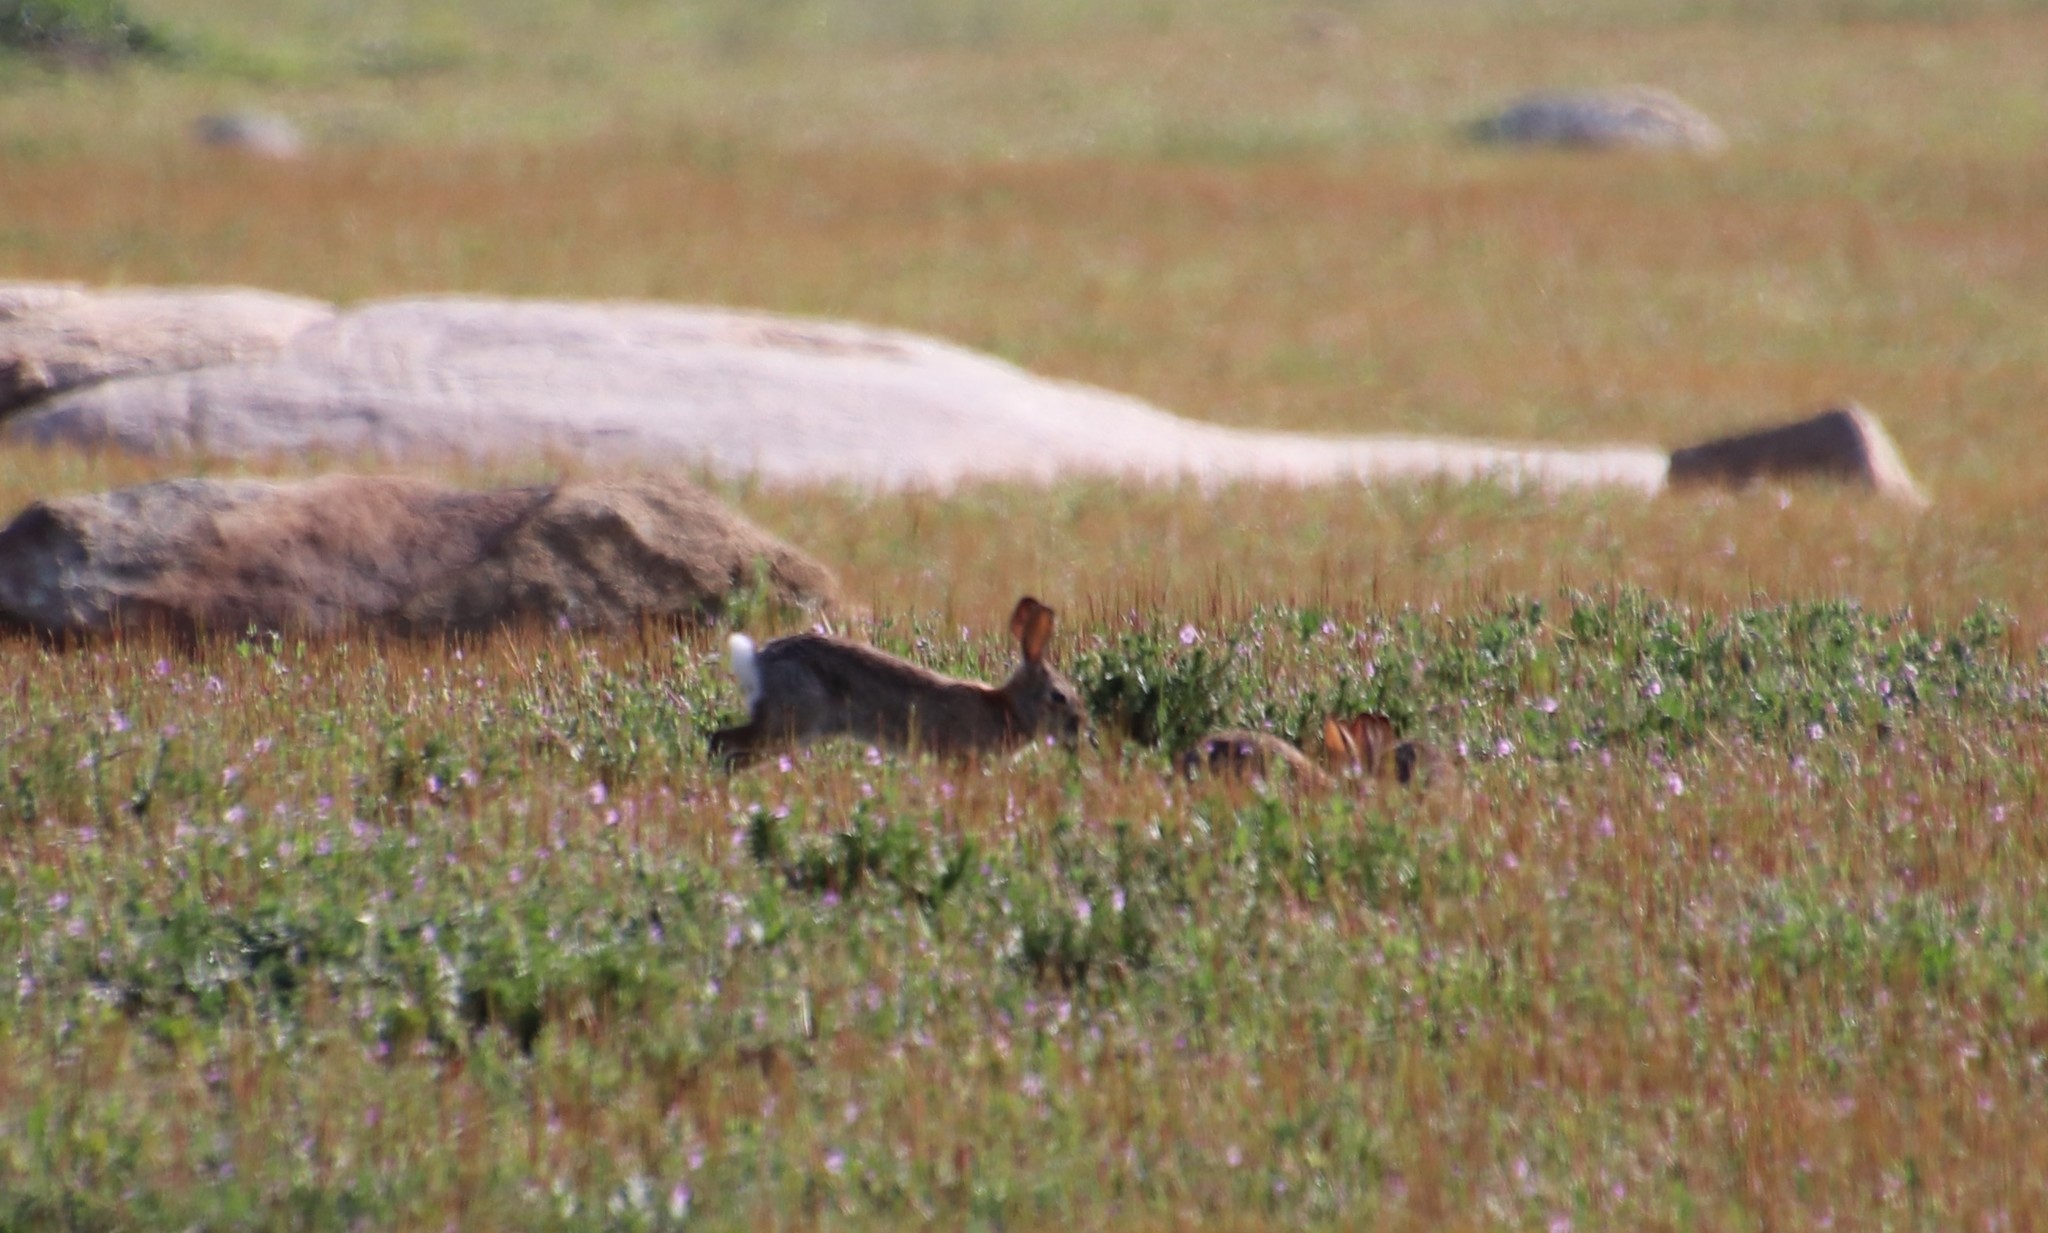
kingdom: Animalia
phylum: Chordata
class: Mammalia
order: Lagomorpha
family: Leporidae
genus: Sylvilagus
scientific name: Sylvilagus audubonii
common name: Desert cottontail
